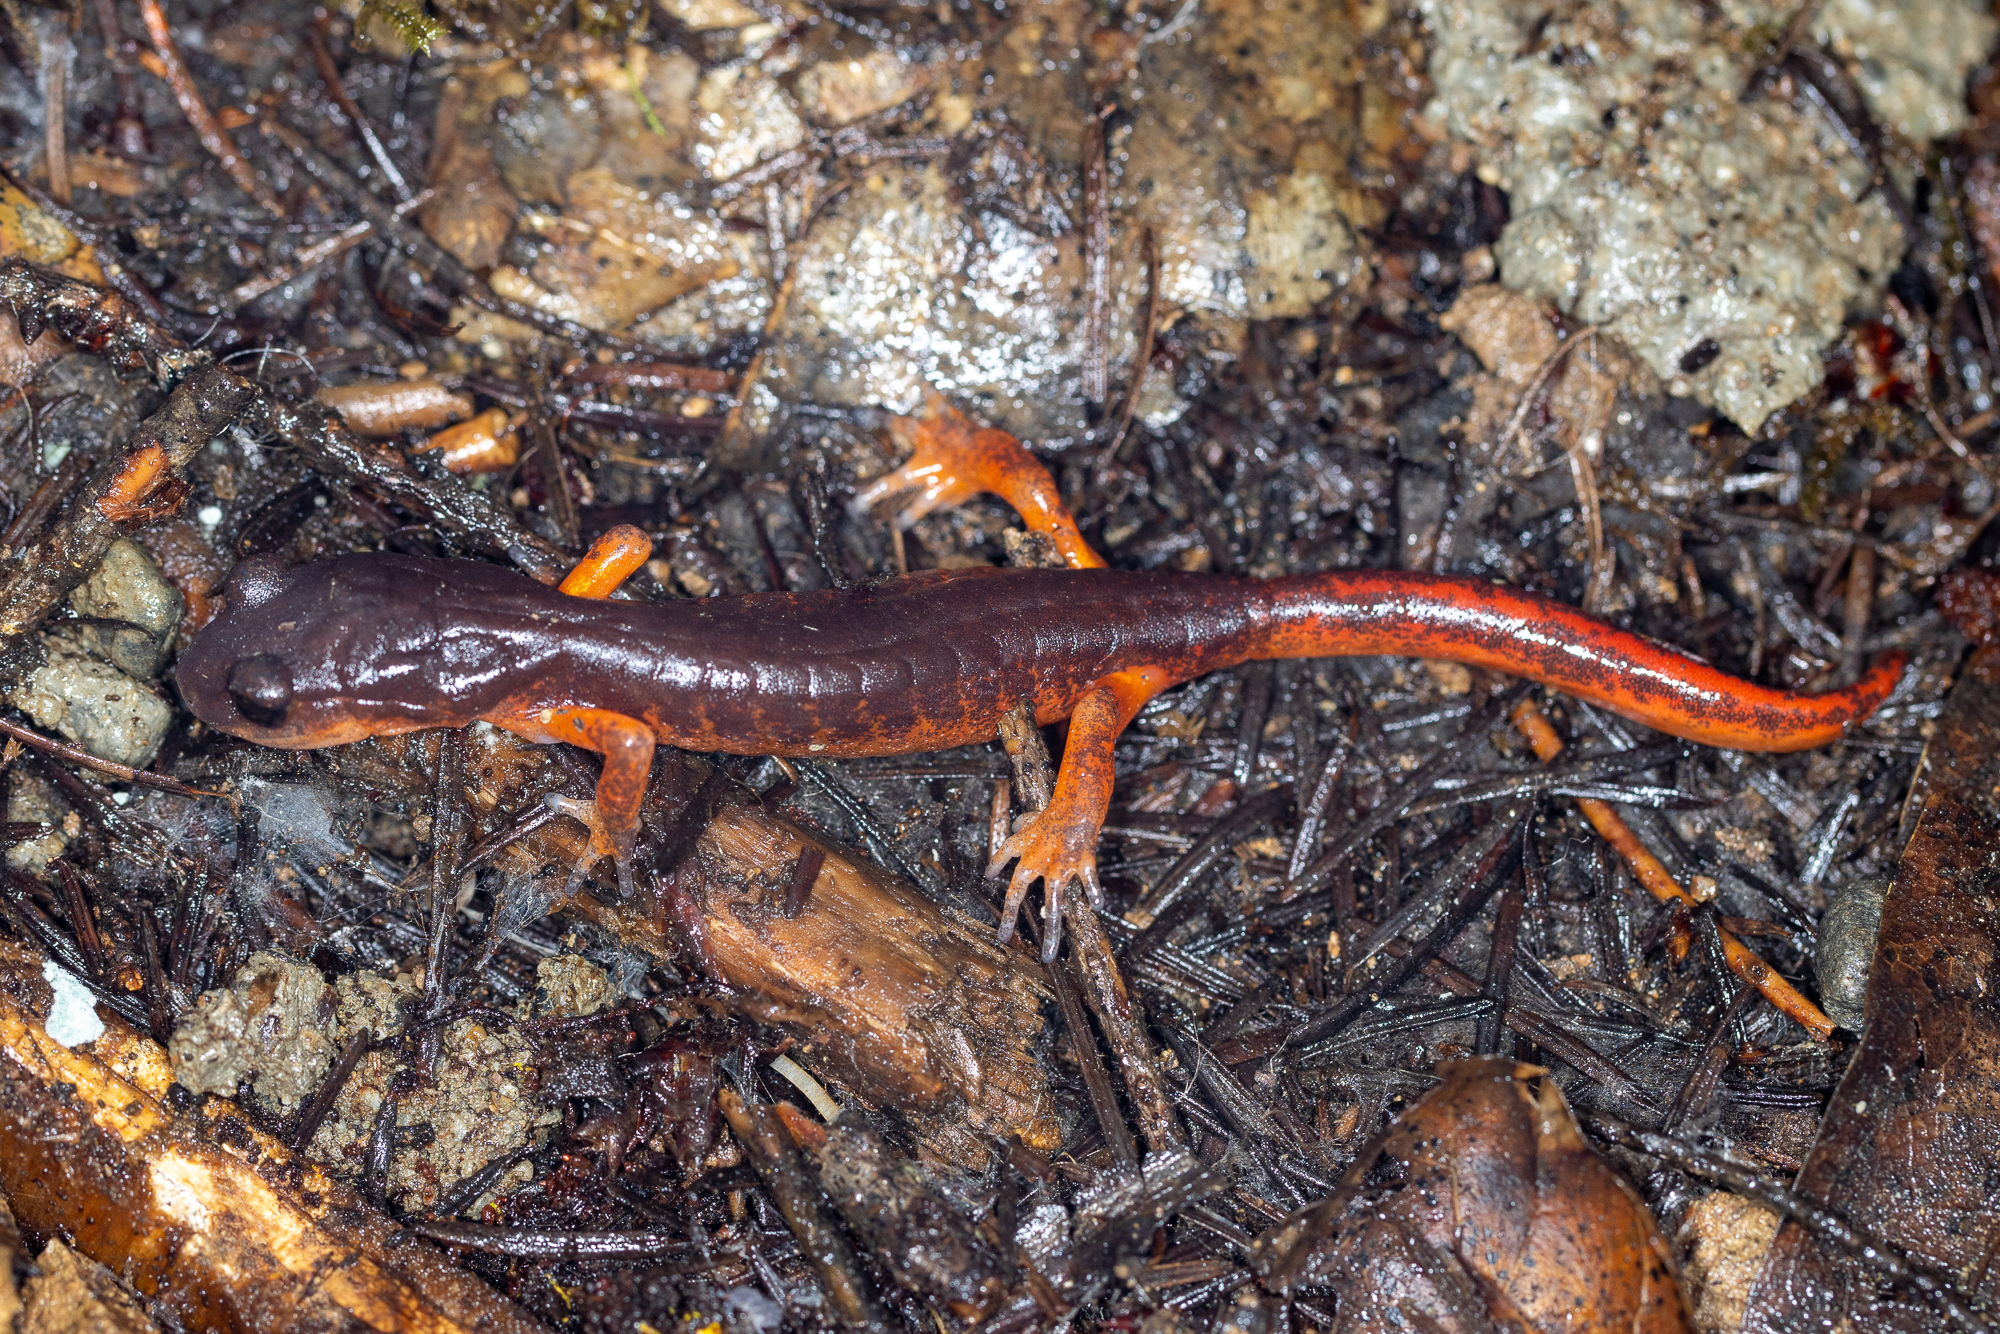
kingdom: Animalia
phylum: Chordata
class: Amphibia
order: Caudata
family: Plethodontidae
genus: Ensatina
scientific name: Ensatina eschscholtzii
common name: Ensatina
